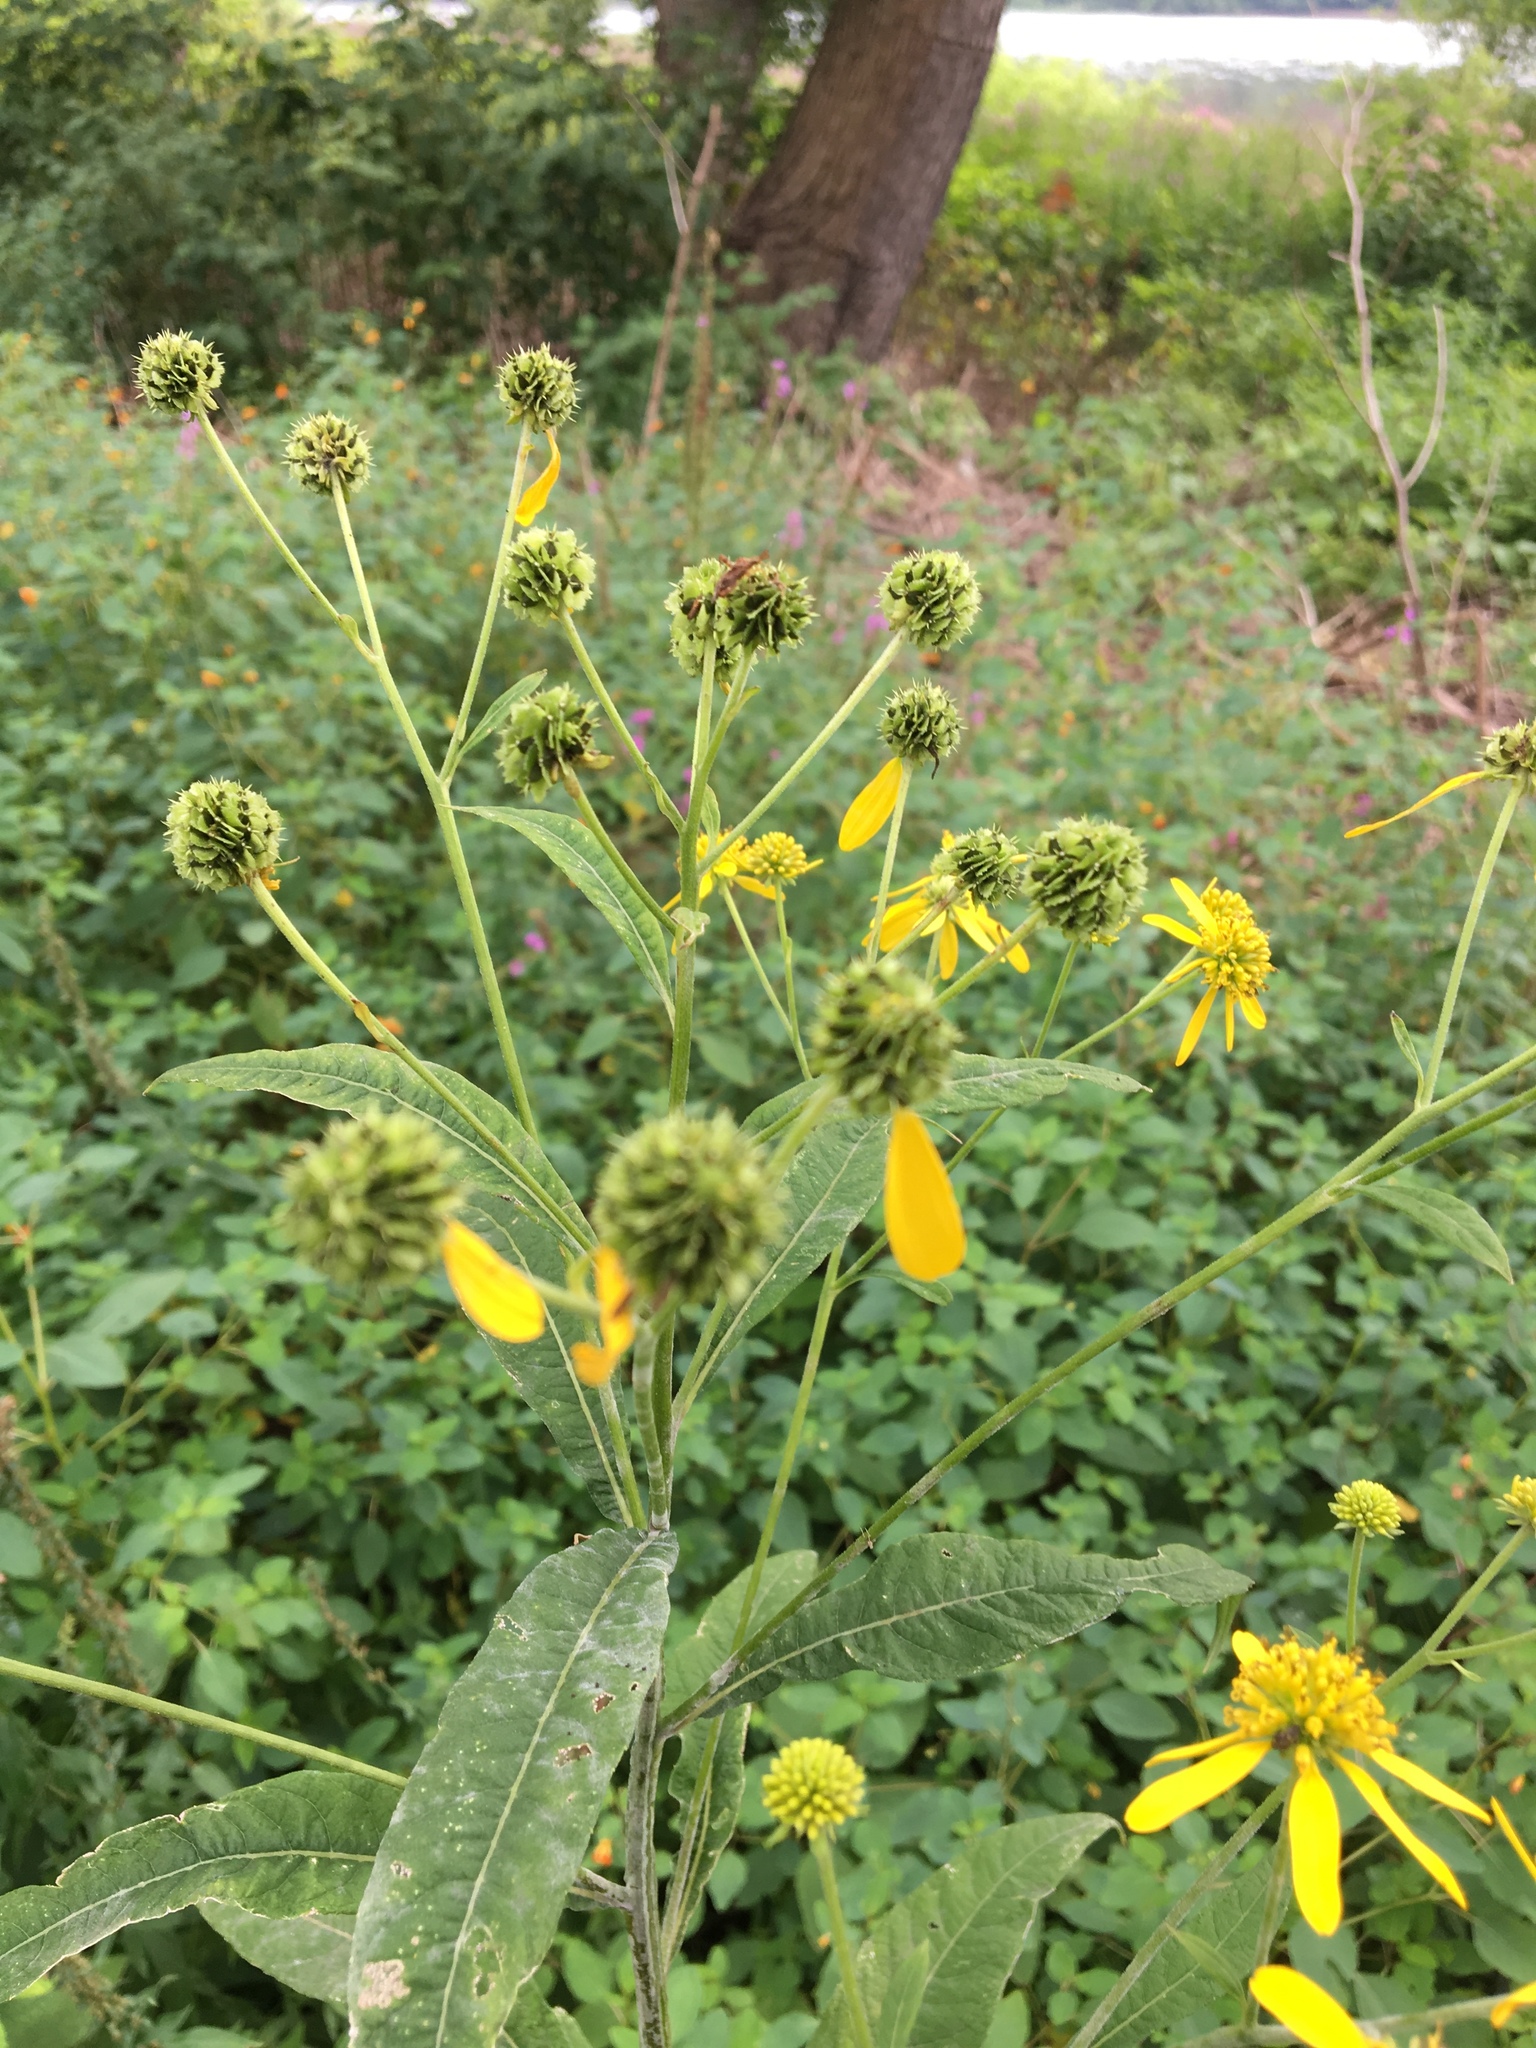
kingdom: Plantae
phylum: Tracheophyta
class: Magnoliopsida
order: Asterales
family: Asteraceae
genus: Verbesina
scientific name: Verbesina alternifolia
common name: Wingstem
